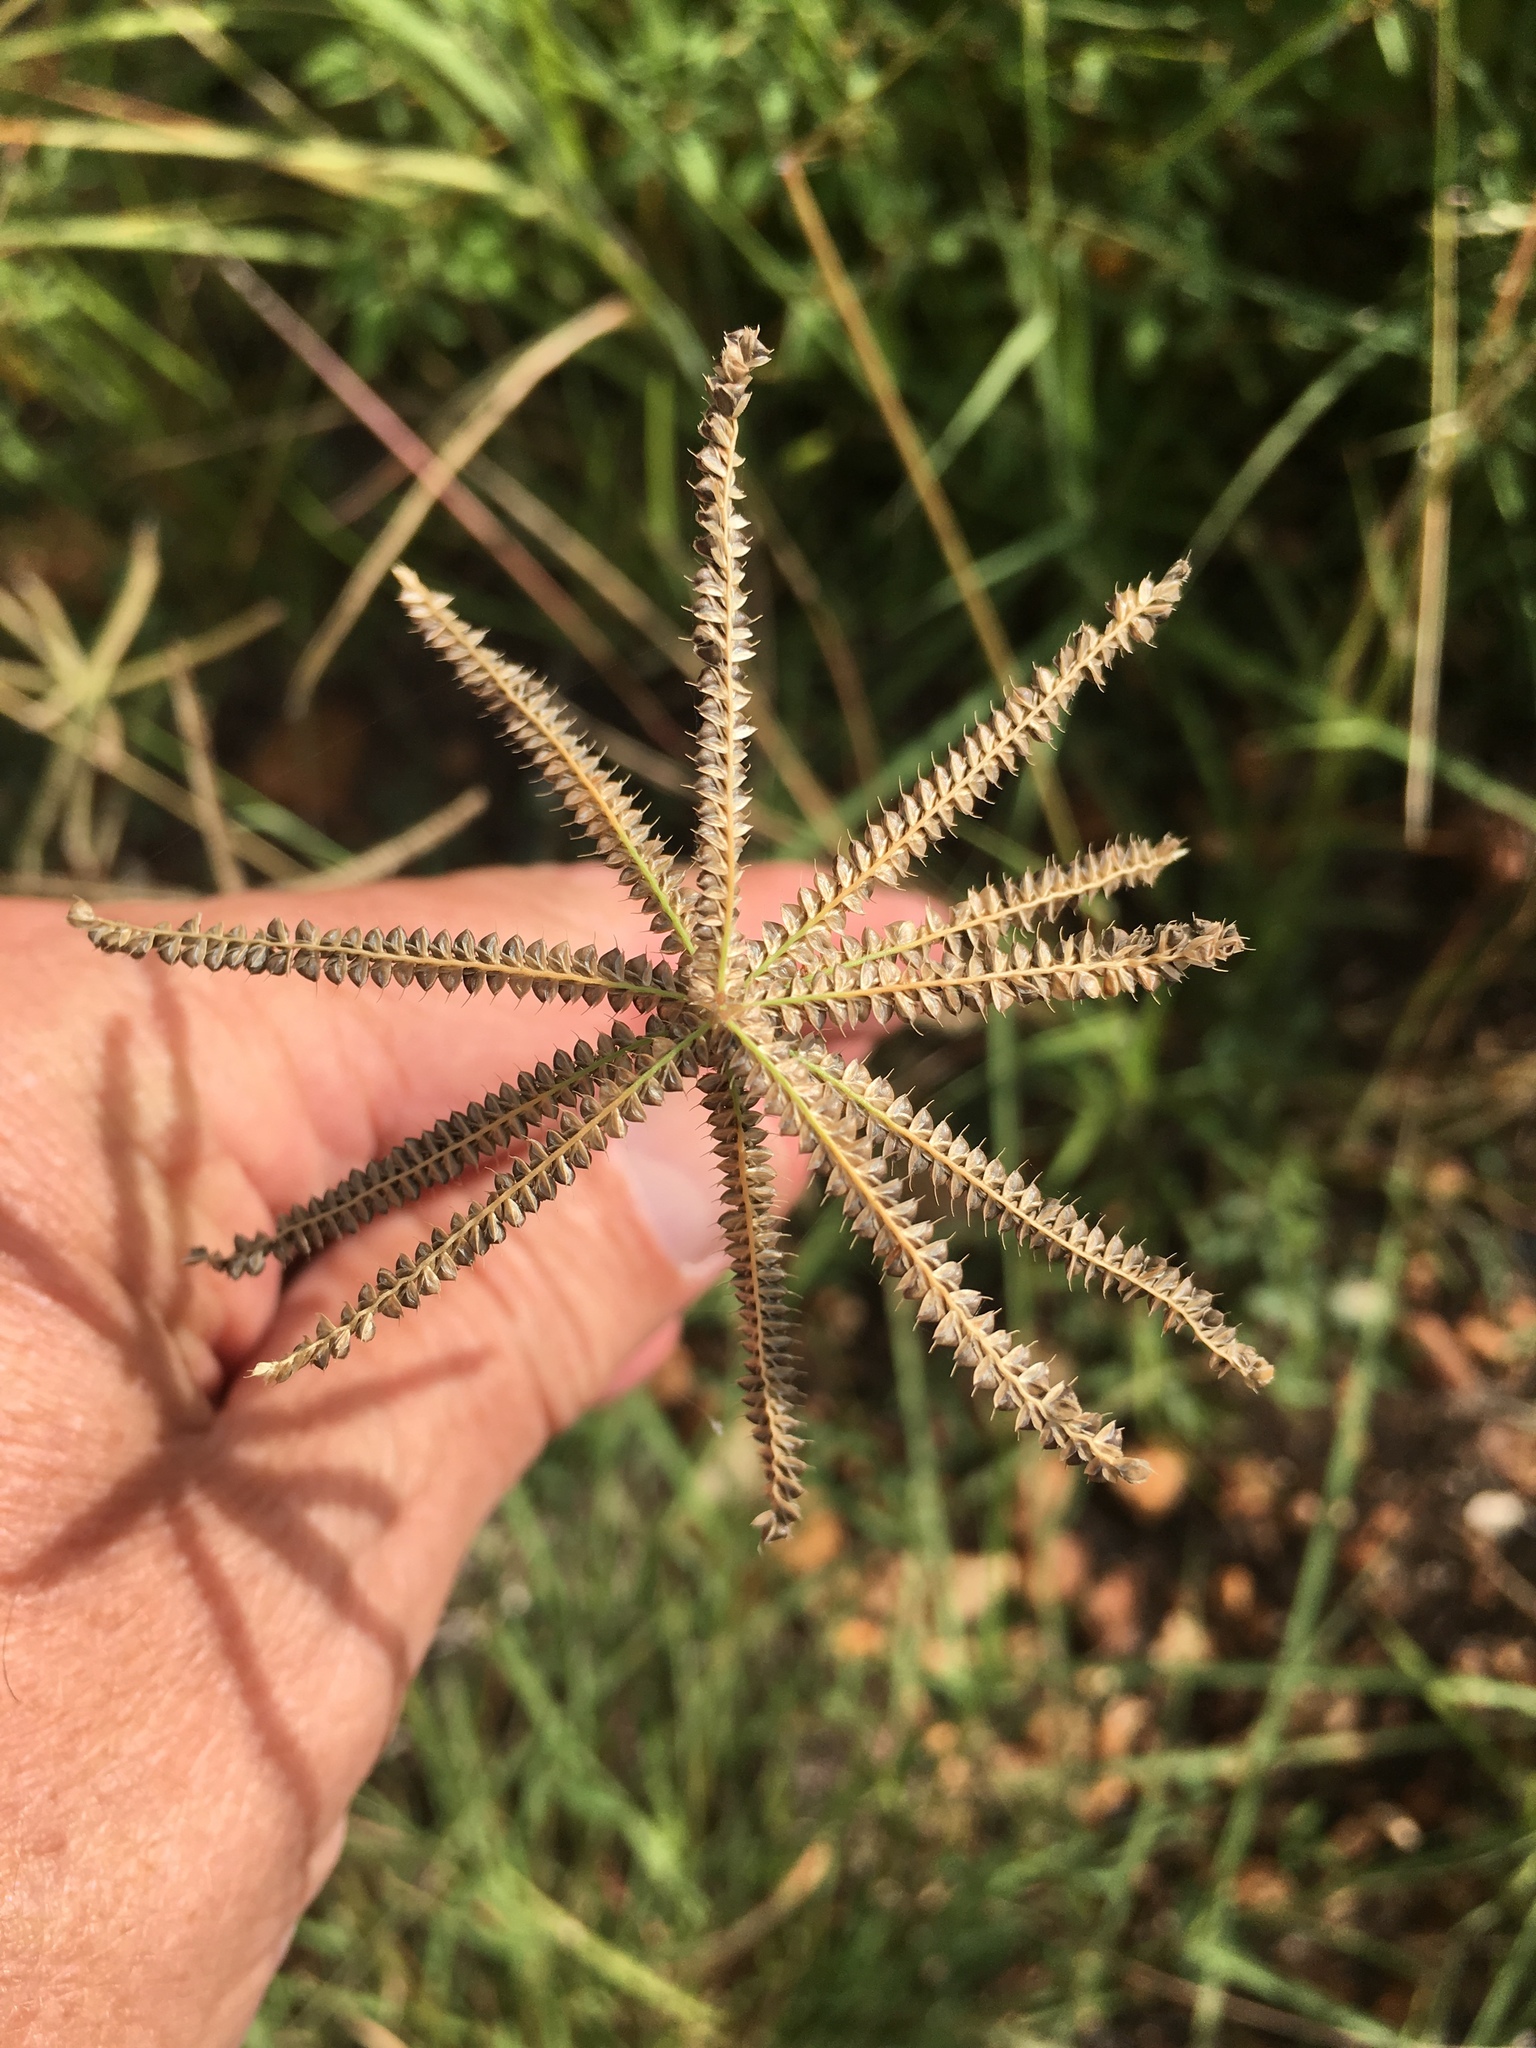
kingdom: Plantae
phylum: Tracheophyta
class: Liliopsida
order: Poales
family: Poaceae
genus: Chloris
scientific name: Chloris cucullata
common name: Hooded windmill grass
